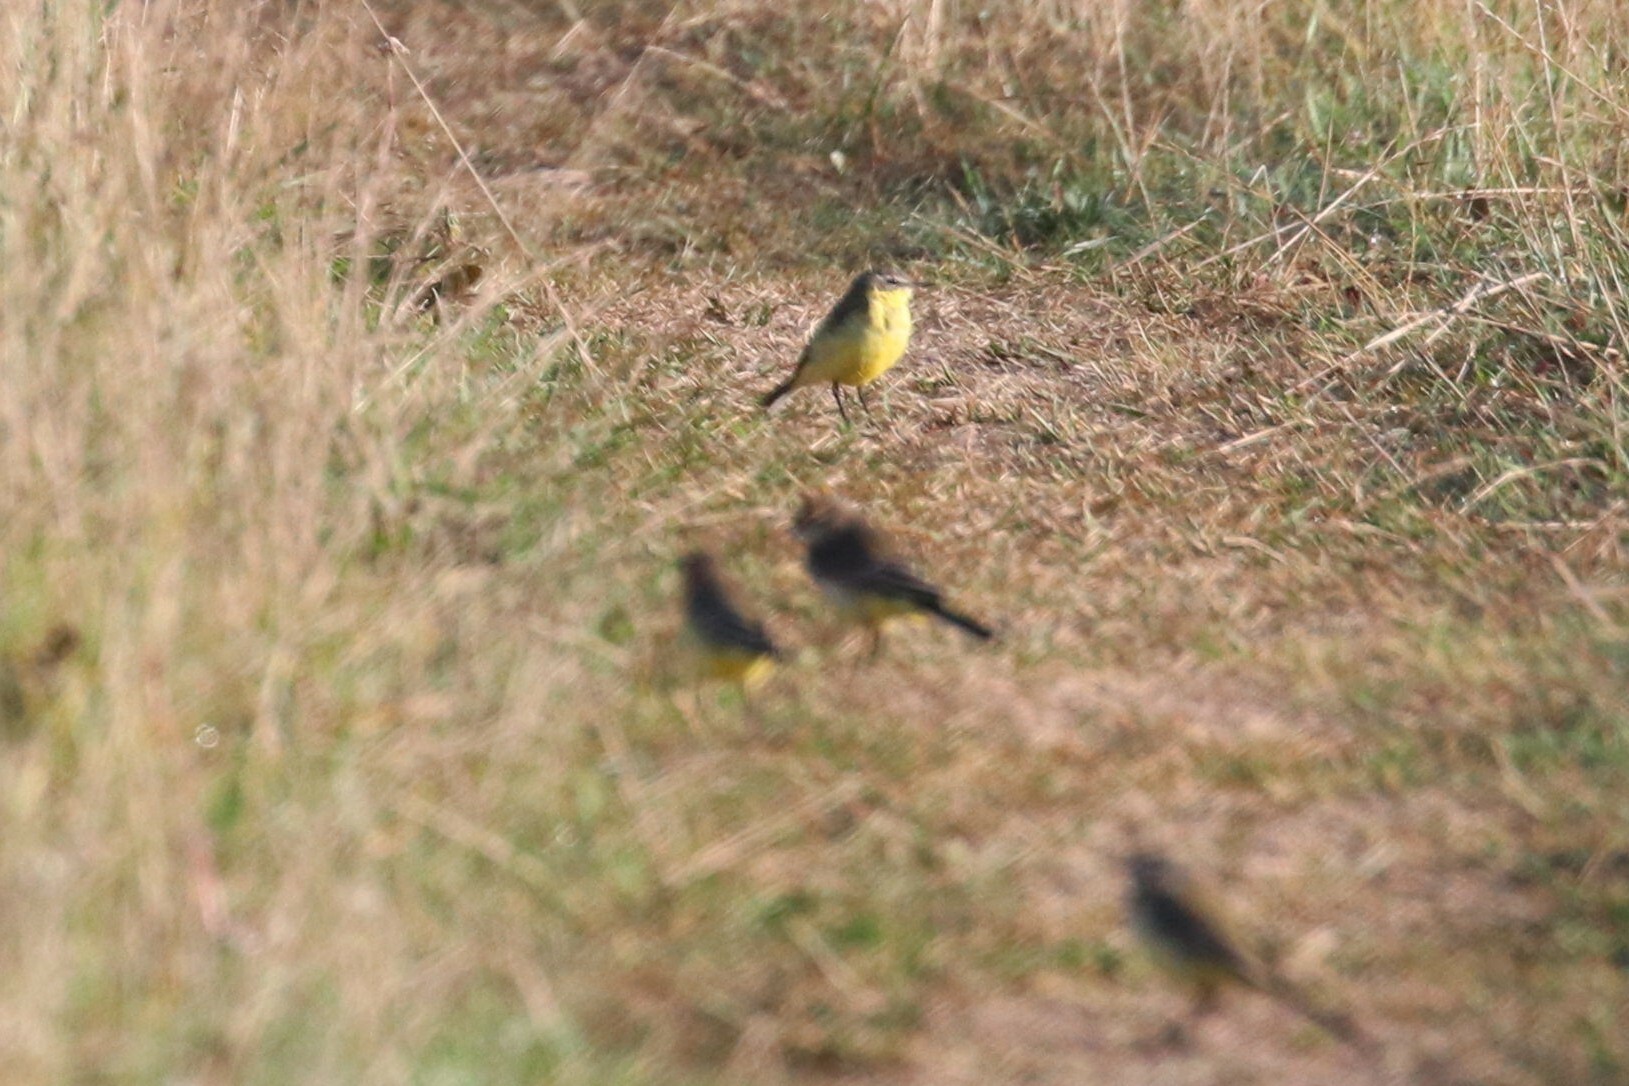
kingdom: Animalia
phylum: Chordata
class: Aves
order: Passeriformes
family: Motacillidae
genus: Motacilla
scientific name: Motacilla flava
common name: Western yellow wagtail
